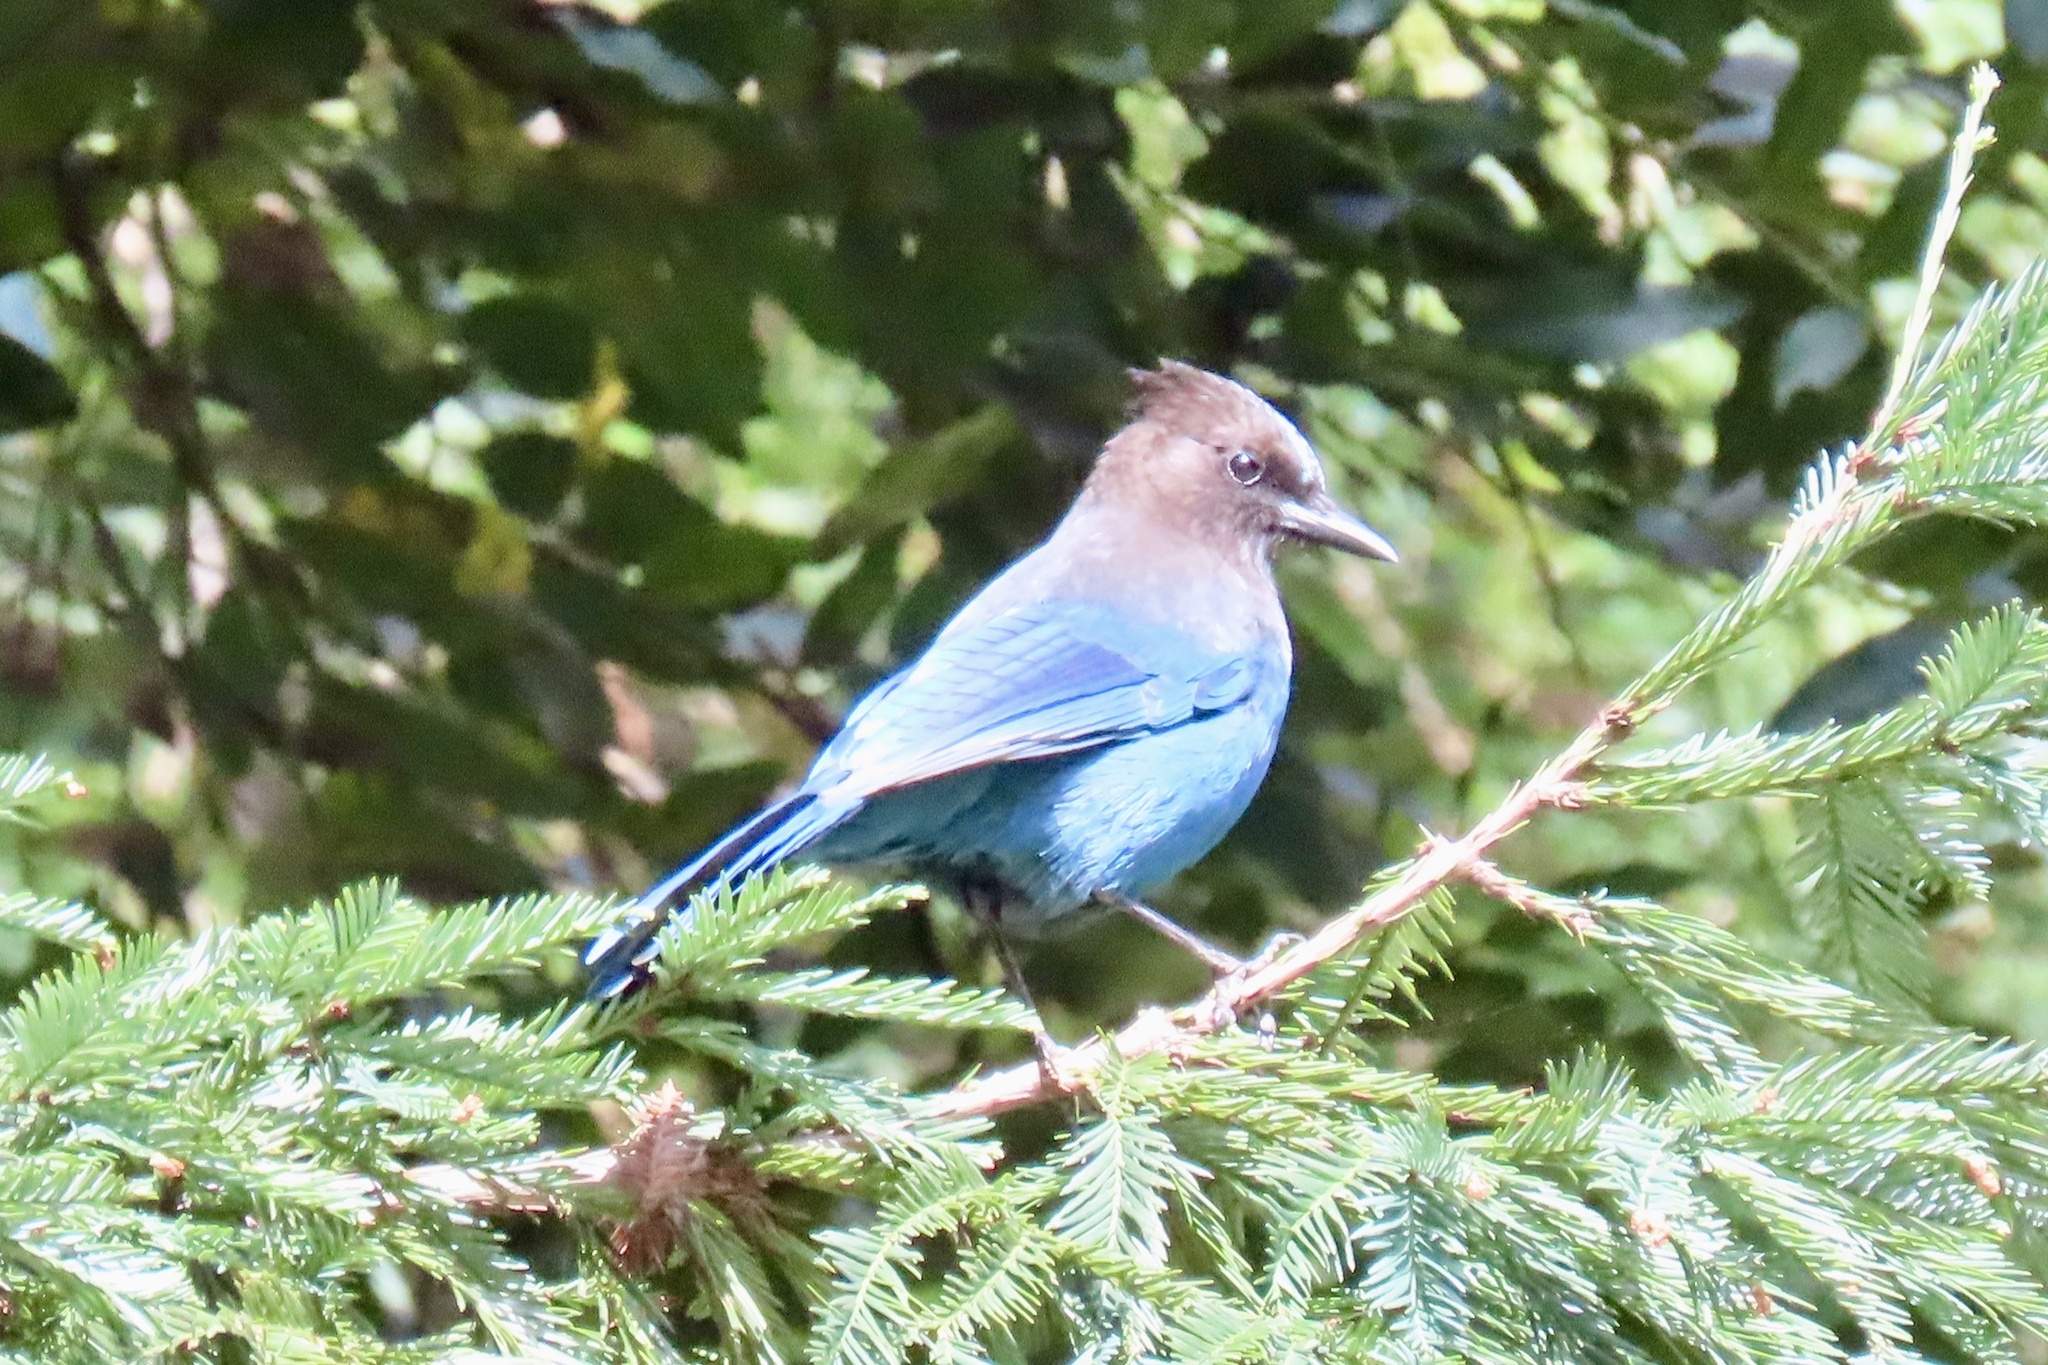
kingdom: Animalia
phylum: Chordata
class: Aves
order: Passeriformes
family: Corvidae
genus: Cyanocitta
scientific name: Cyanocitta stelleri
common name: Steller's jay
